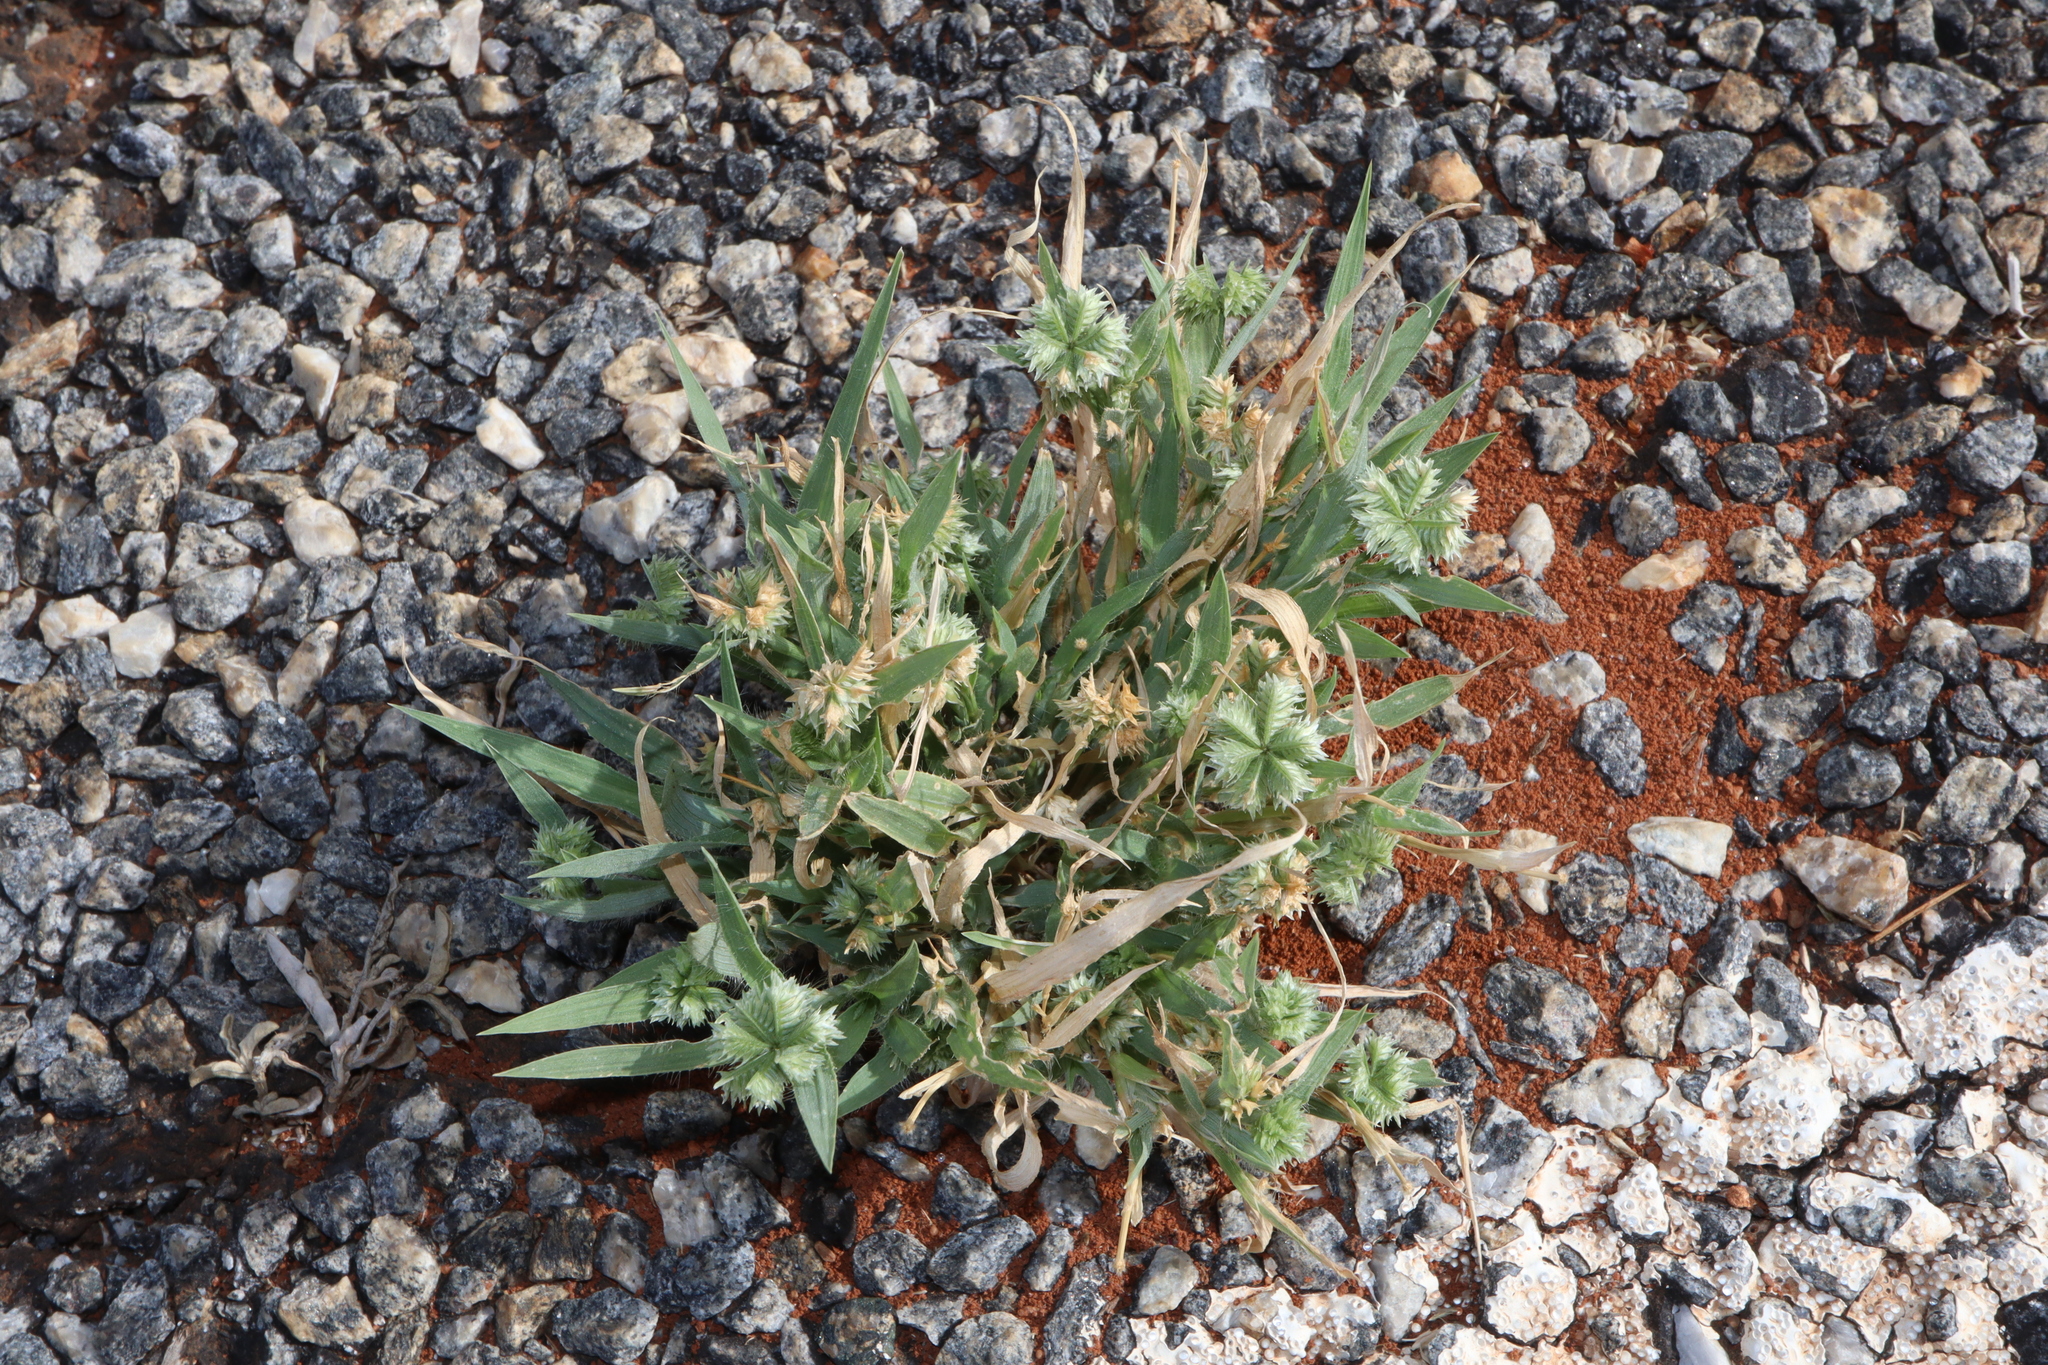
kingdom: Plantae
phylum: Tracheophyta
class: Liliopsida
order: Poales
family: Poaceae
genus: Dactyloctenium
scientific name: Dactyloctenium radulans
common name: Button-grass
